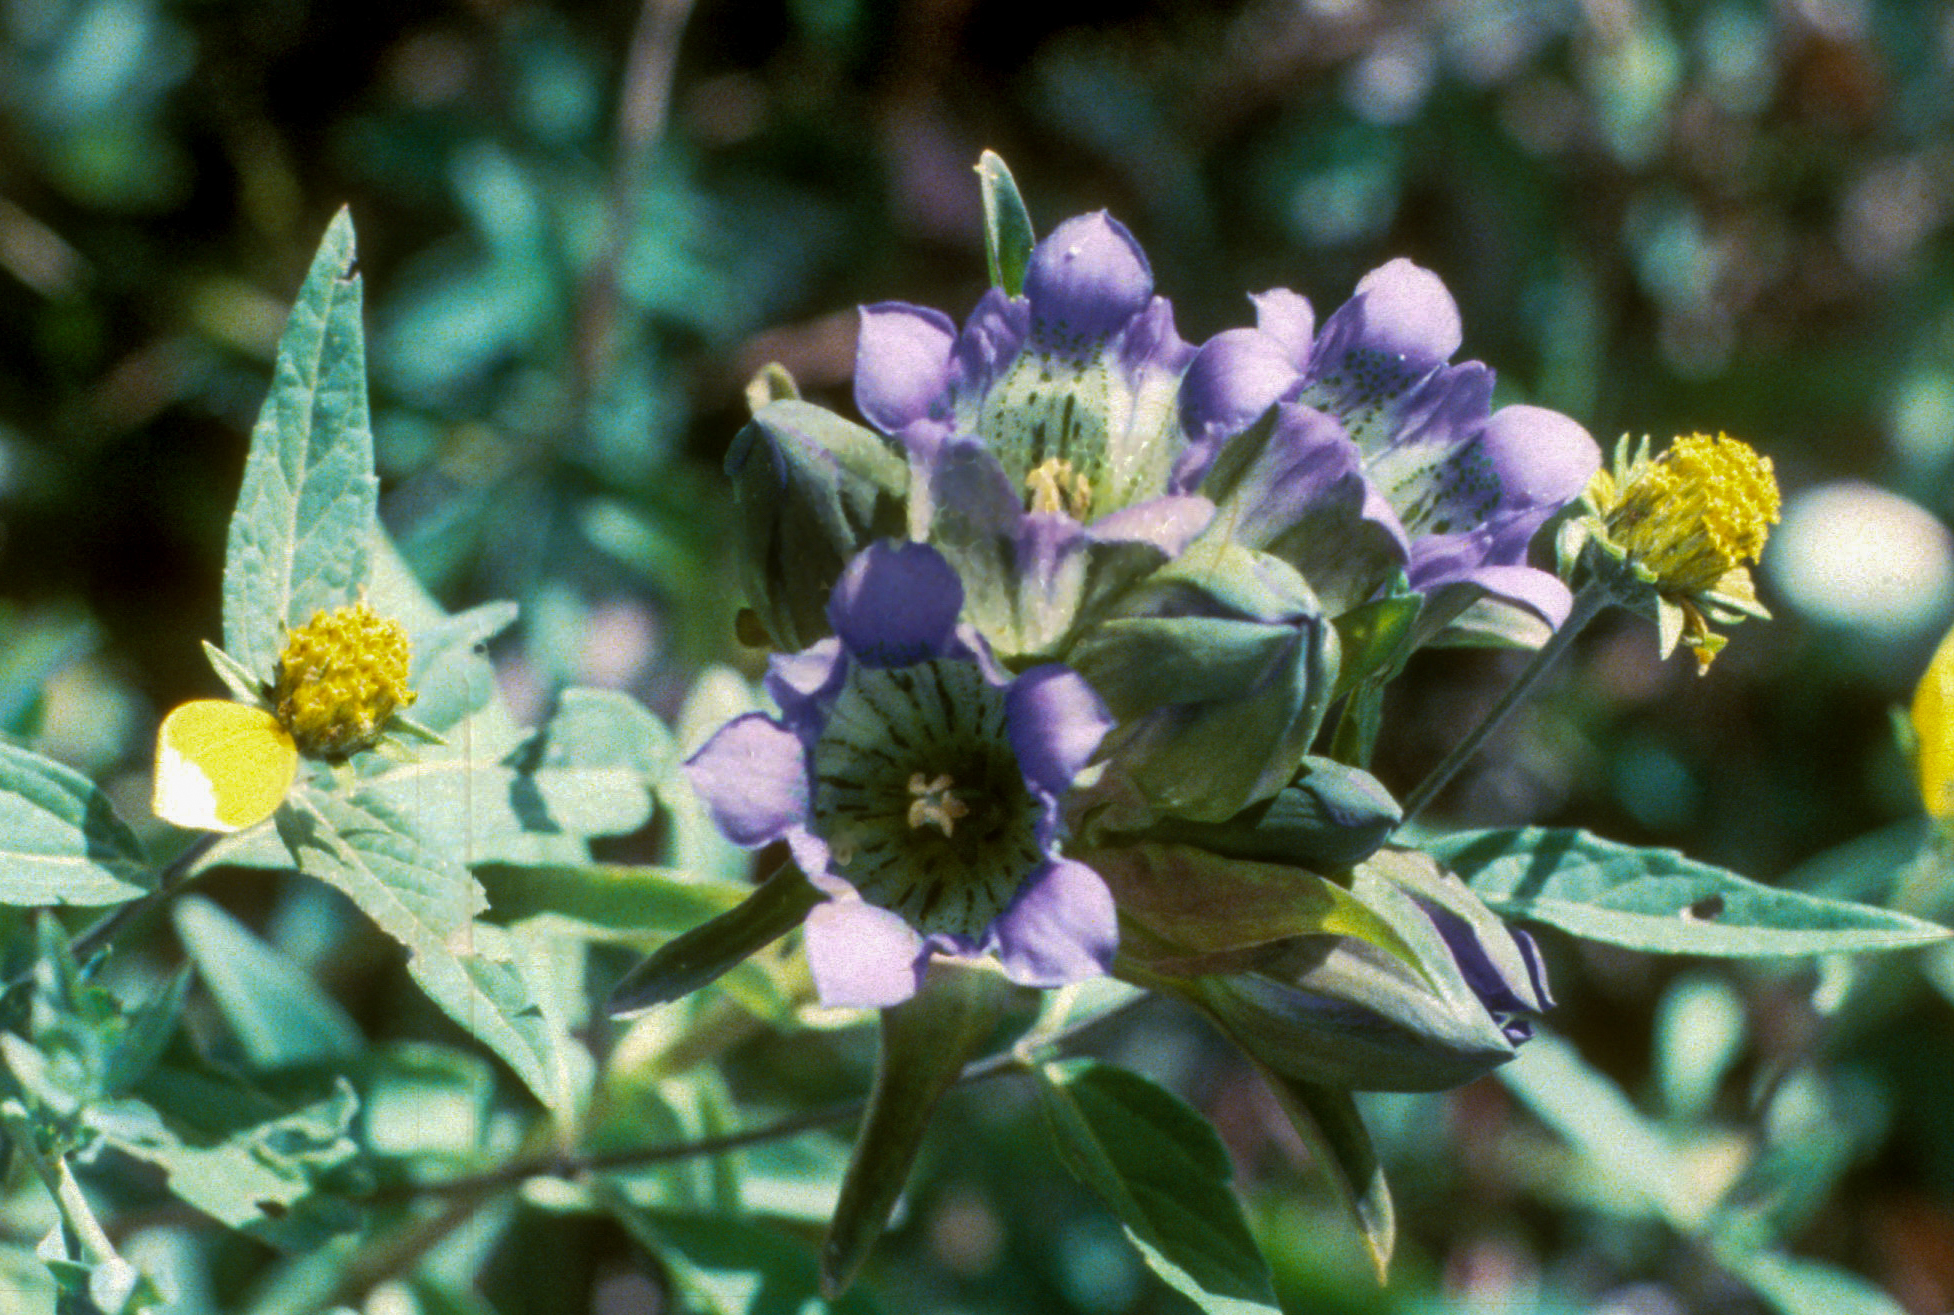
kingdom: Plantae
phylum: Tracheophyta
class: Magnoliopsida
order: Gentianales
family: Gentianaceae
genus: Gentiana
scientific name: Gentiana parryi
